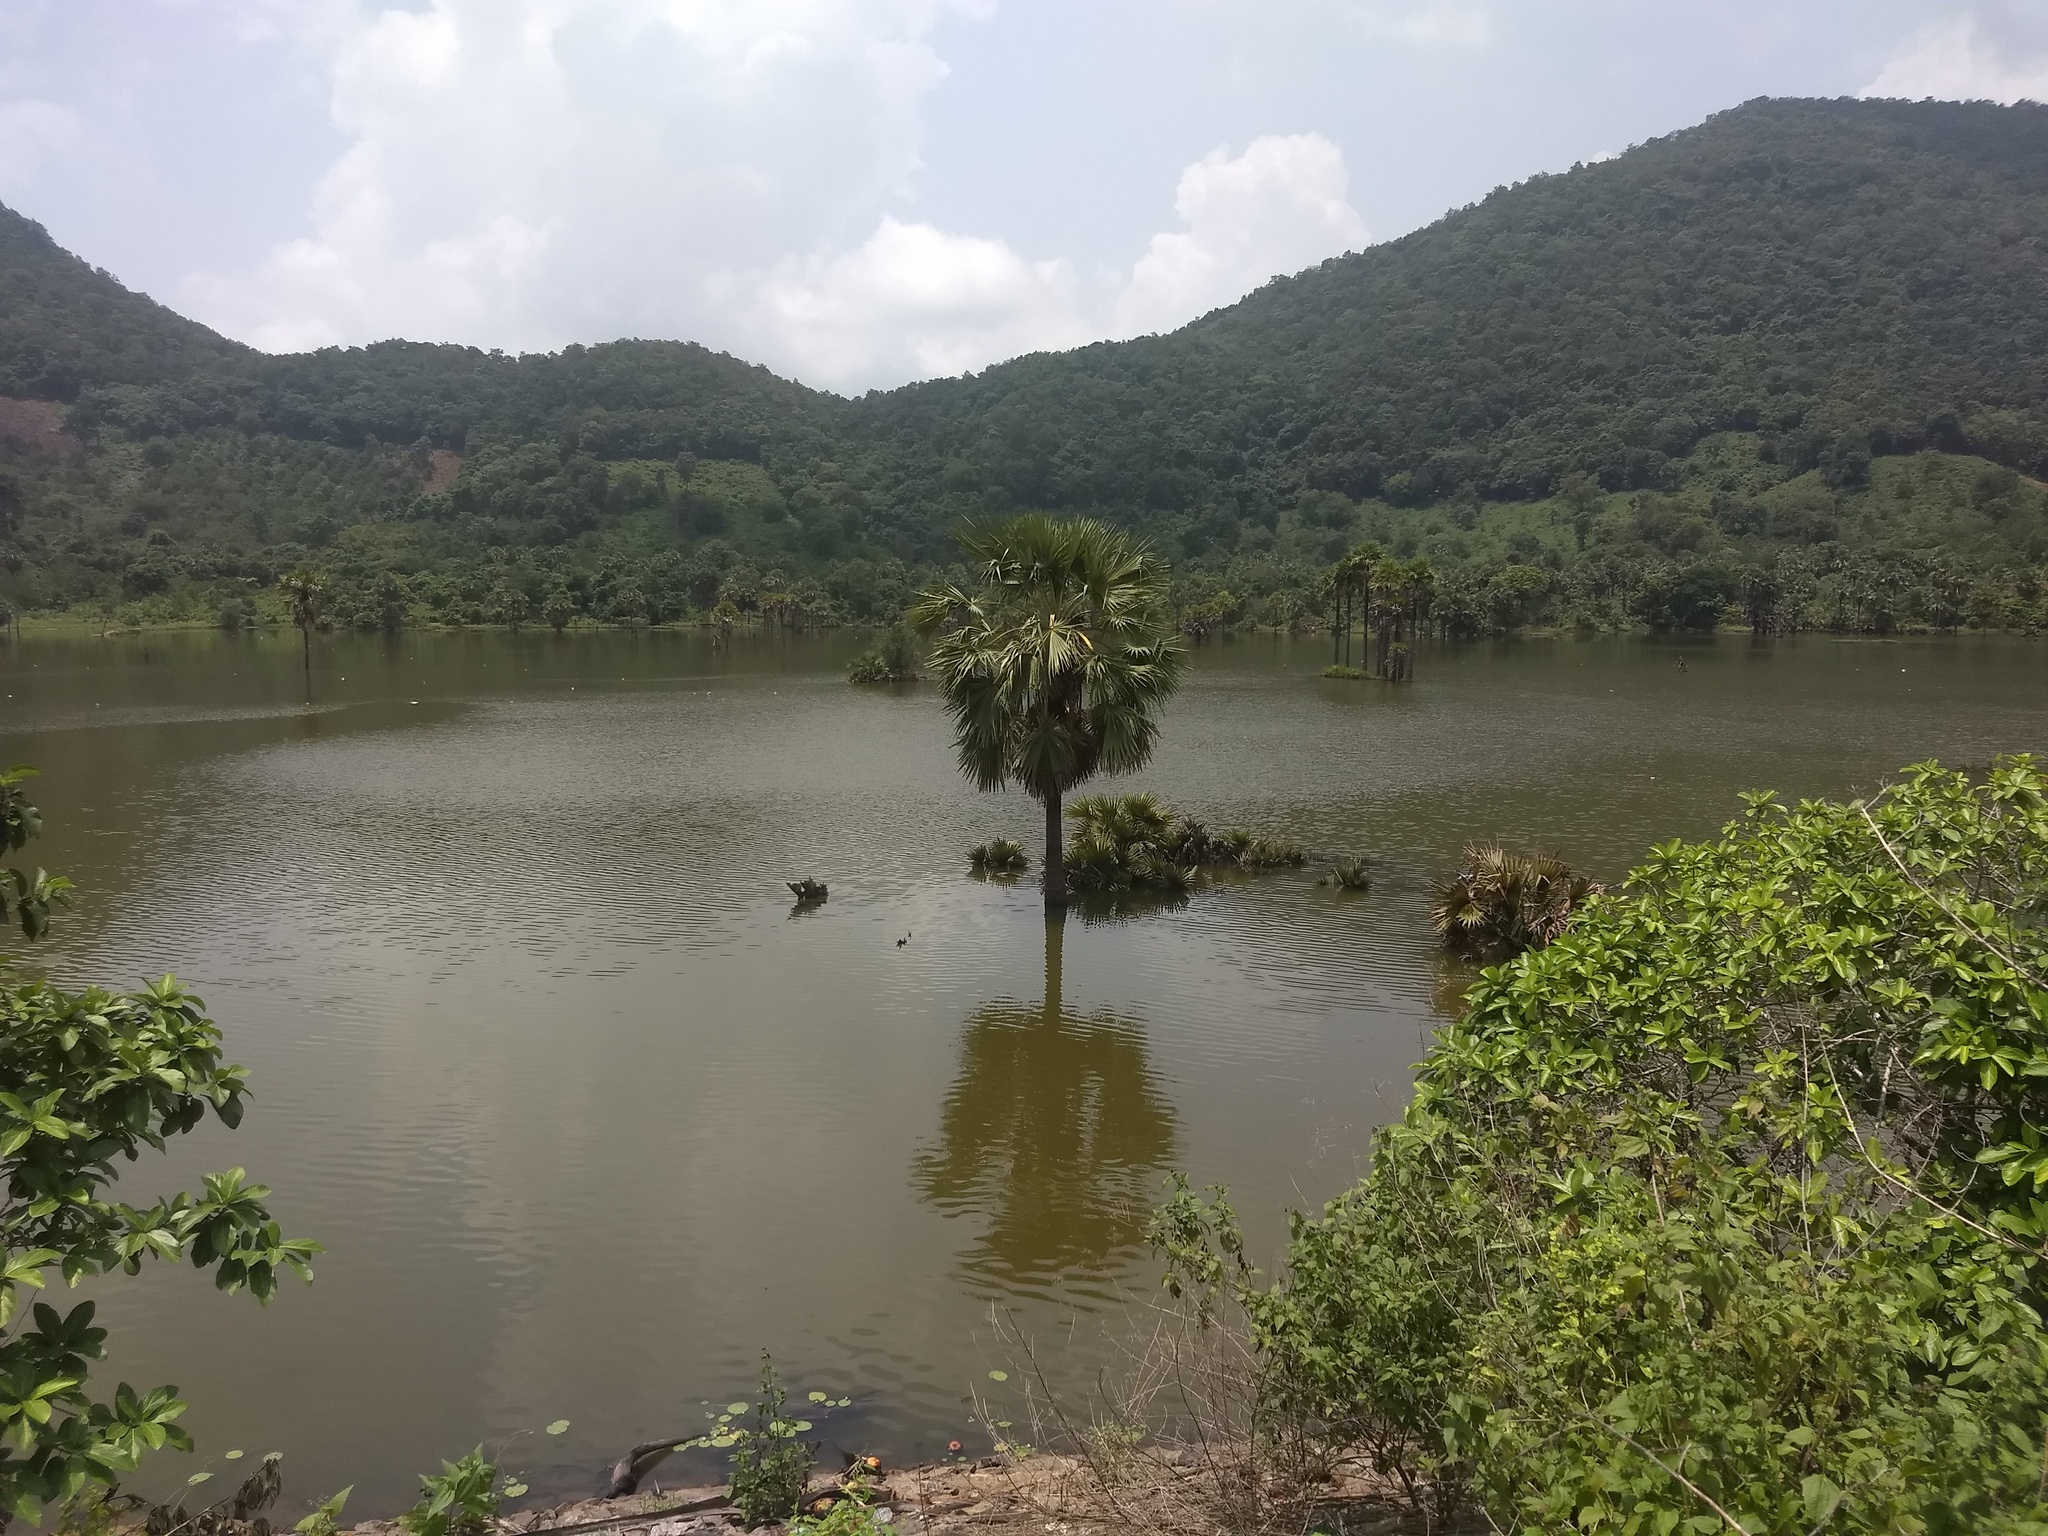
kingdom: Plantae
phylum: Tracheophyta
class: Liliopsida
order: Arecales
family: Arecaceae
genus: Borassus
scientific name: Borassus flabellifer
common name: Palmyra palm
